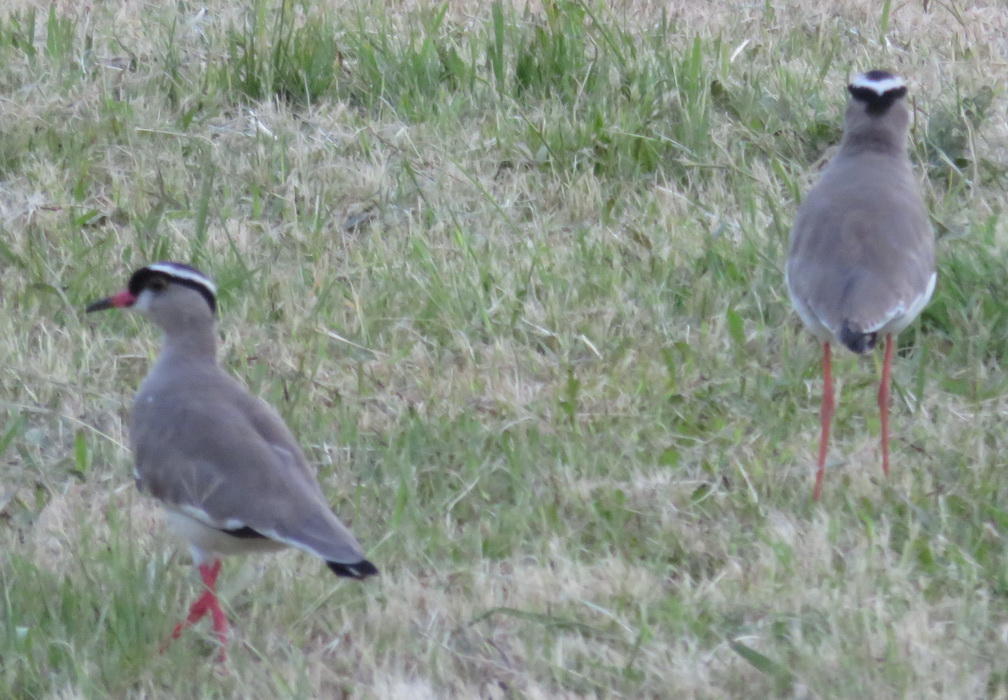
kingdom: Animalia
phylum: Chordata
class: Aves
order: Charadriiformes
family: Charadriidae
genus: Vanellus
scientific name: Vanellus coronatus
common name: Crowned lapwing
